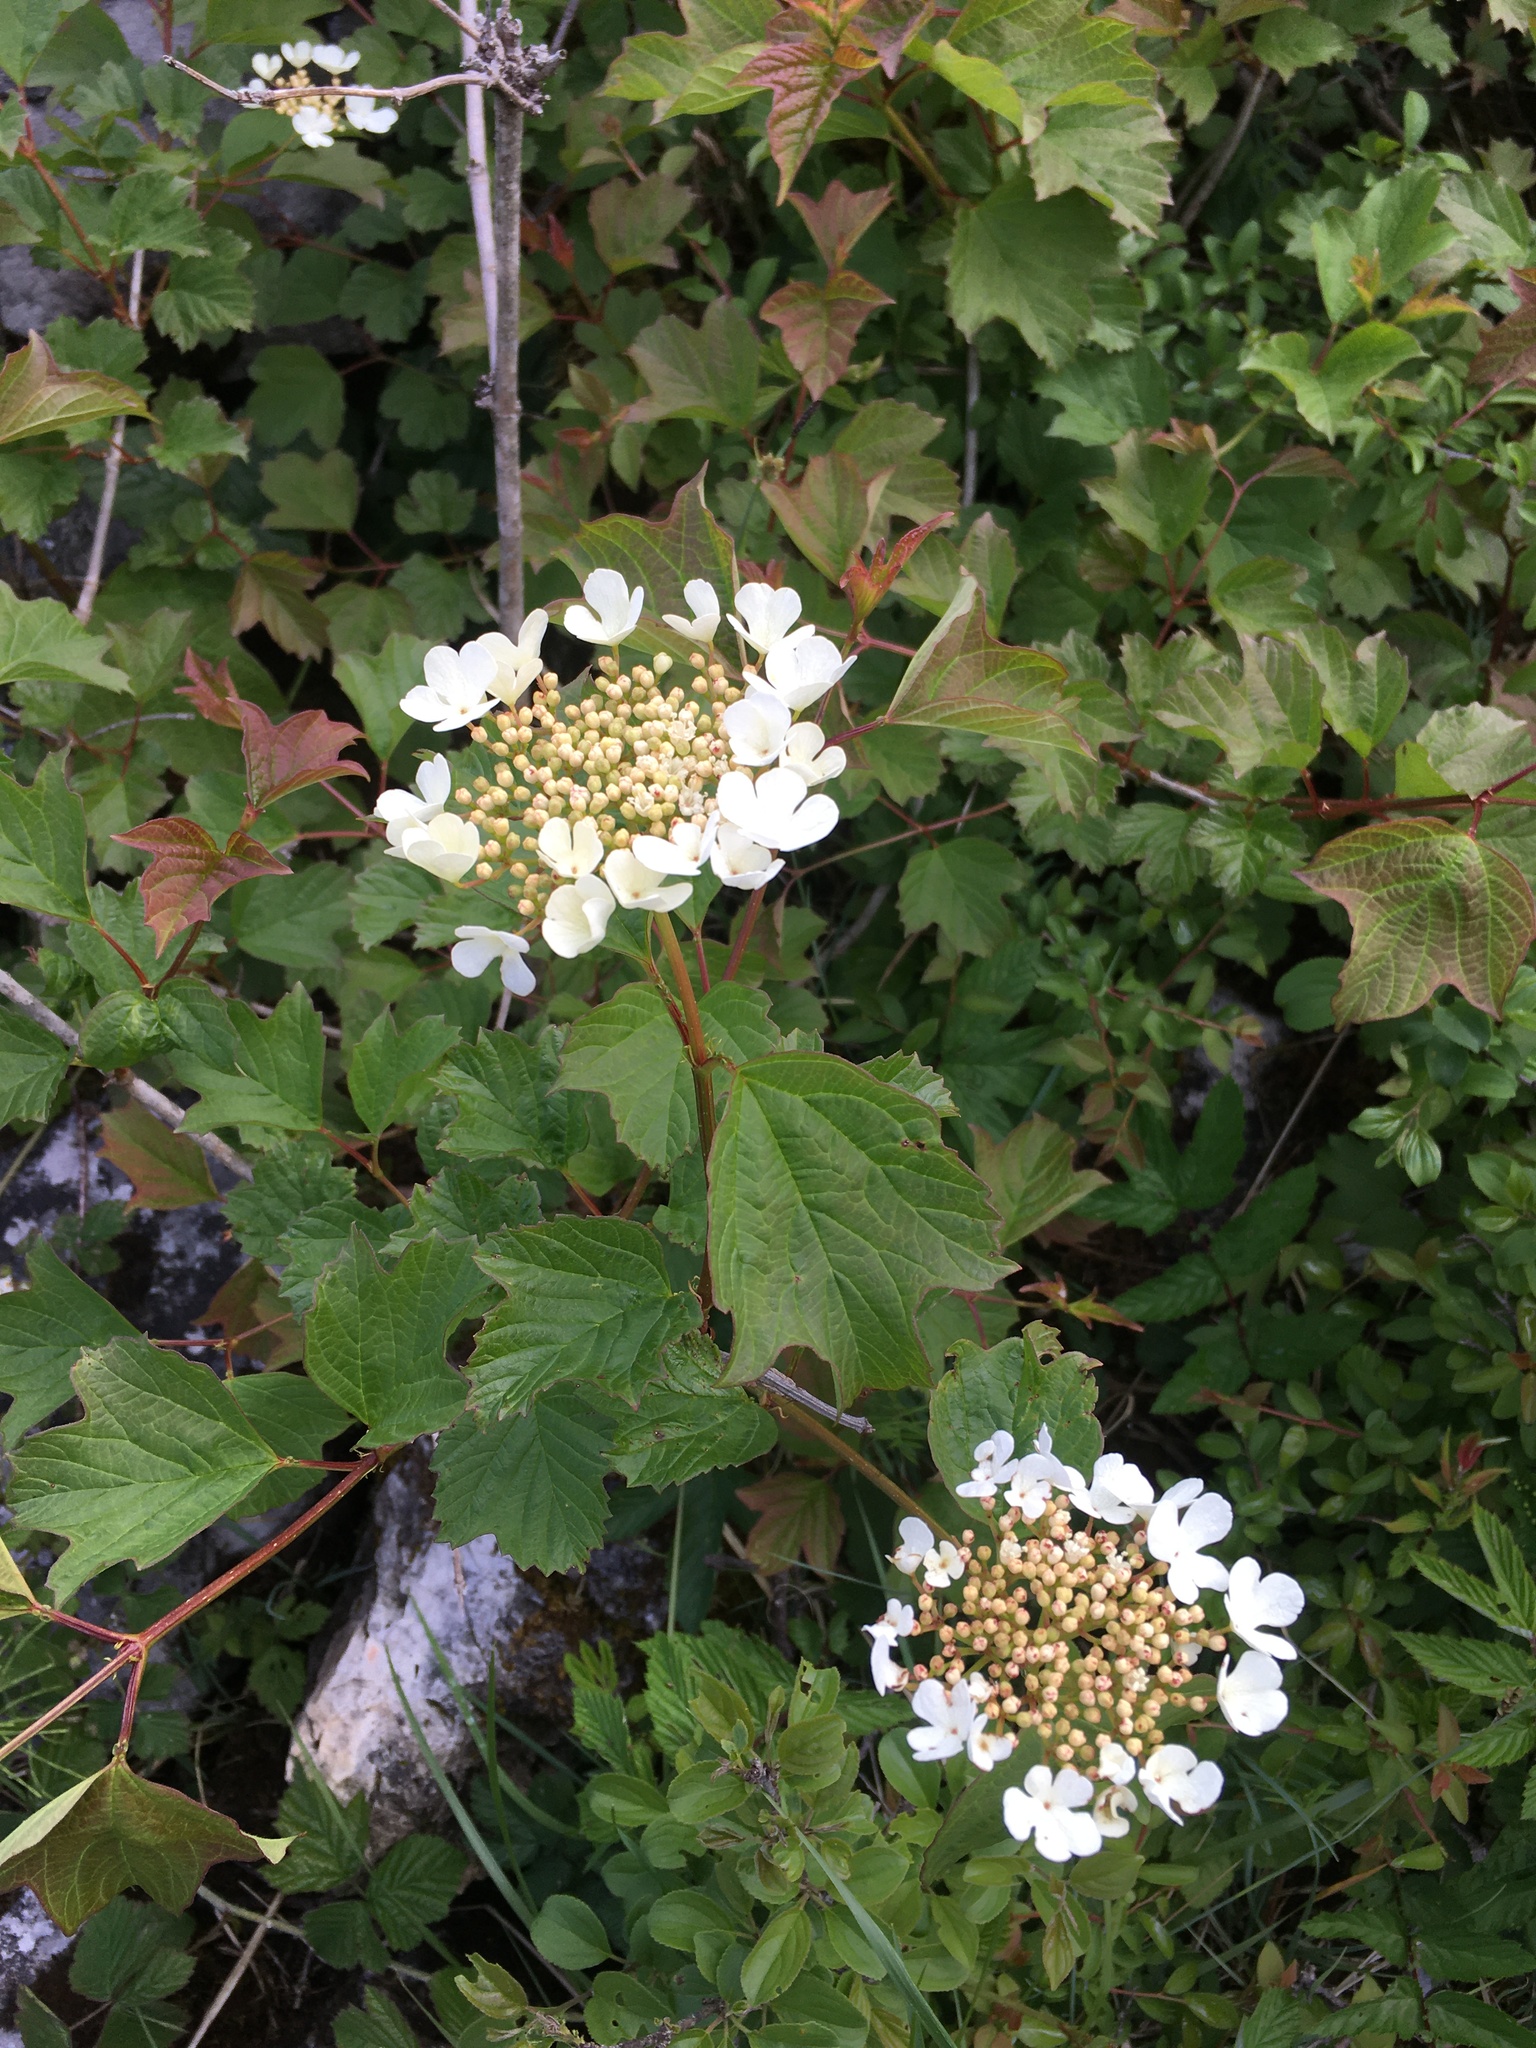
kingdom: Plantae
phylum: Tracheophyta
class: Magnoliopsida
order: Dipsacales
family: Viburnaceae
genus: Viburnum
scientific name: Viburnum opulus
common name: Guelder-rose
